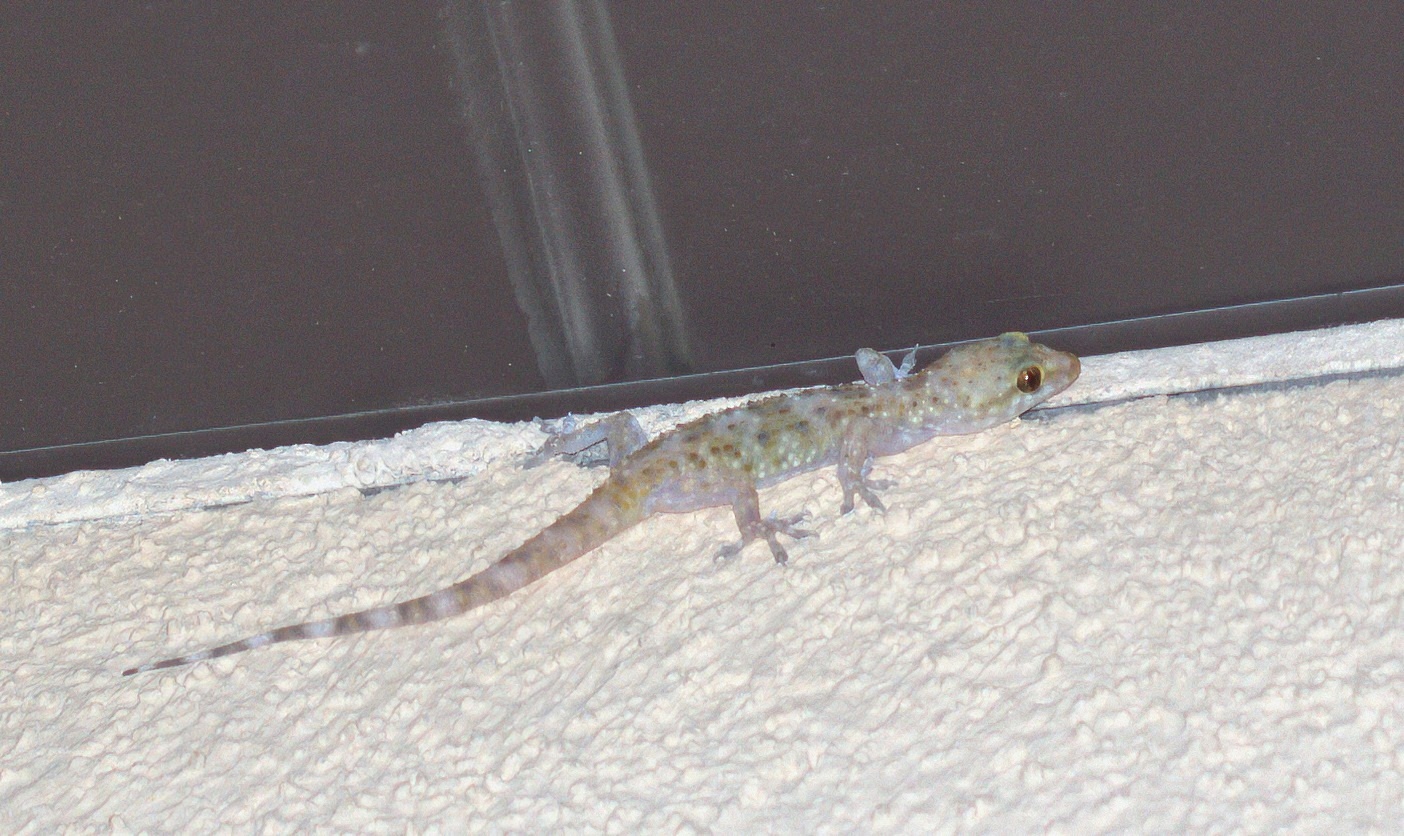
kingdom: Animalia
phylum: Chordata
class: Squamata
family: Gekkonidae
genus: Hemidactylus
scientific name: Hemidactylus turcicus
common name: Turkish gecko
